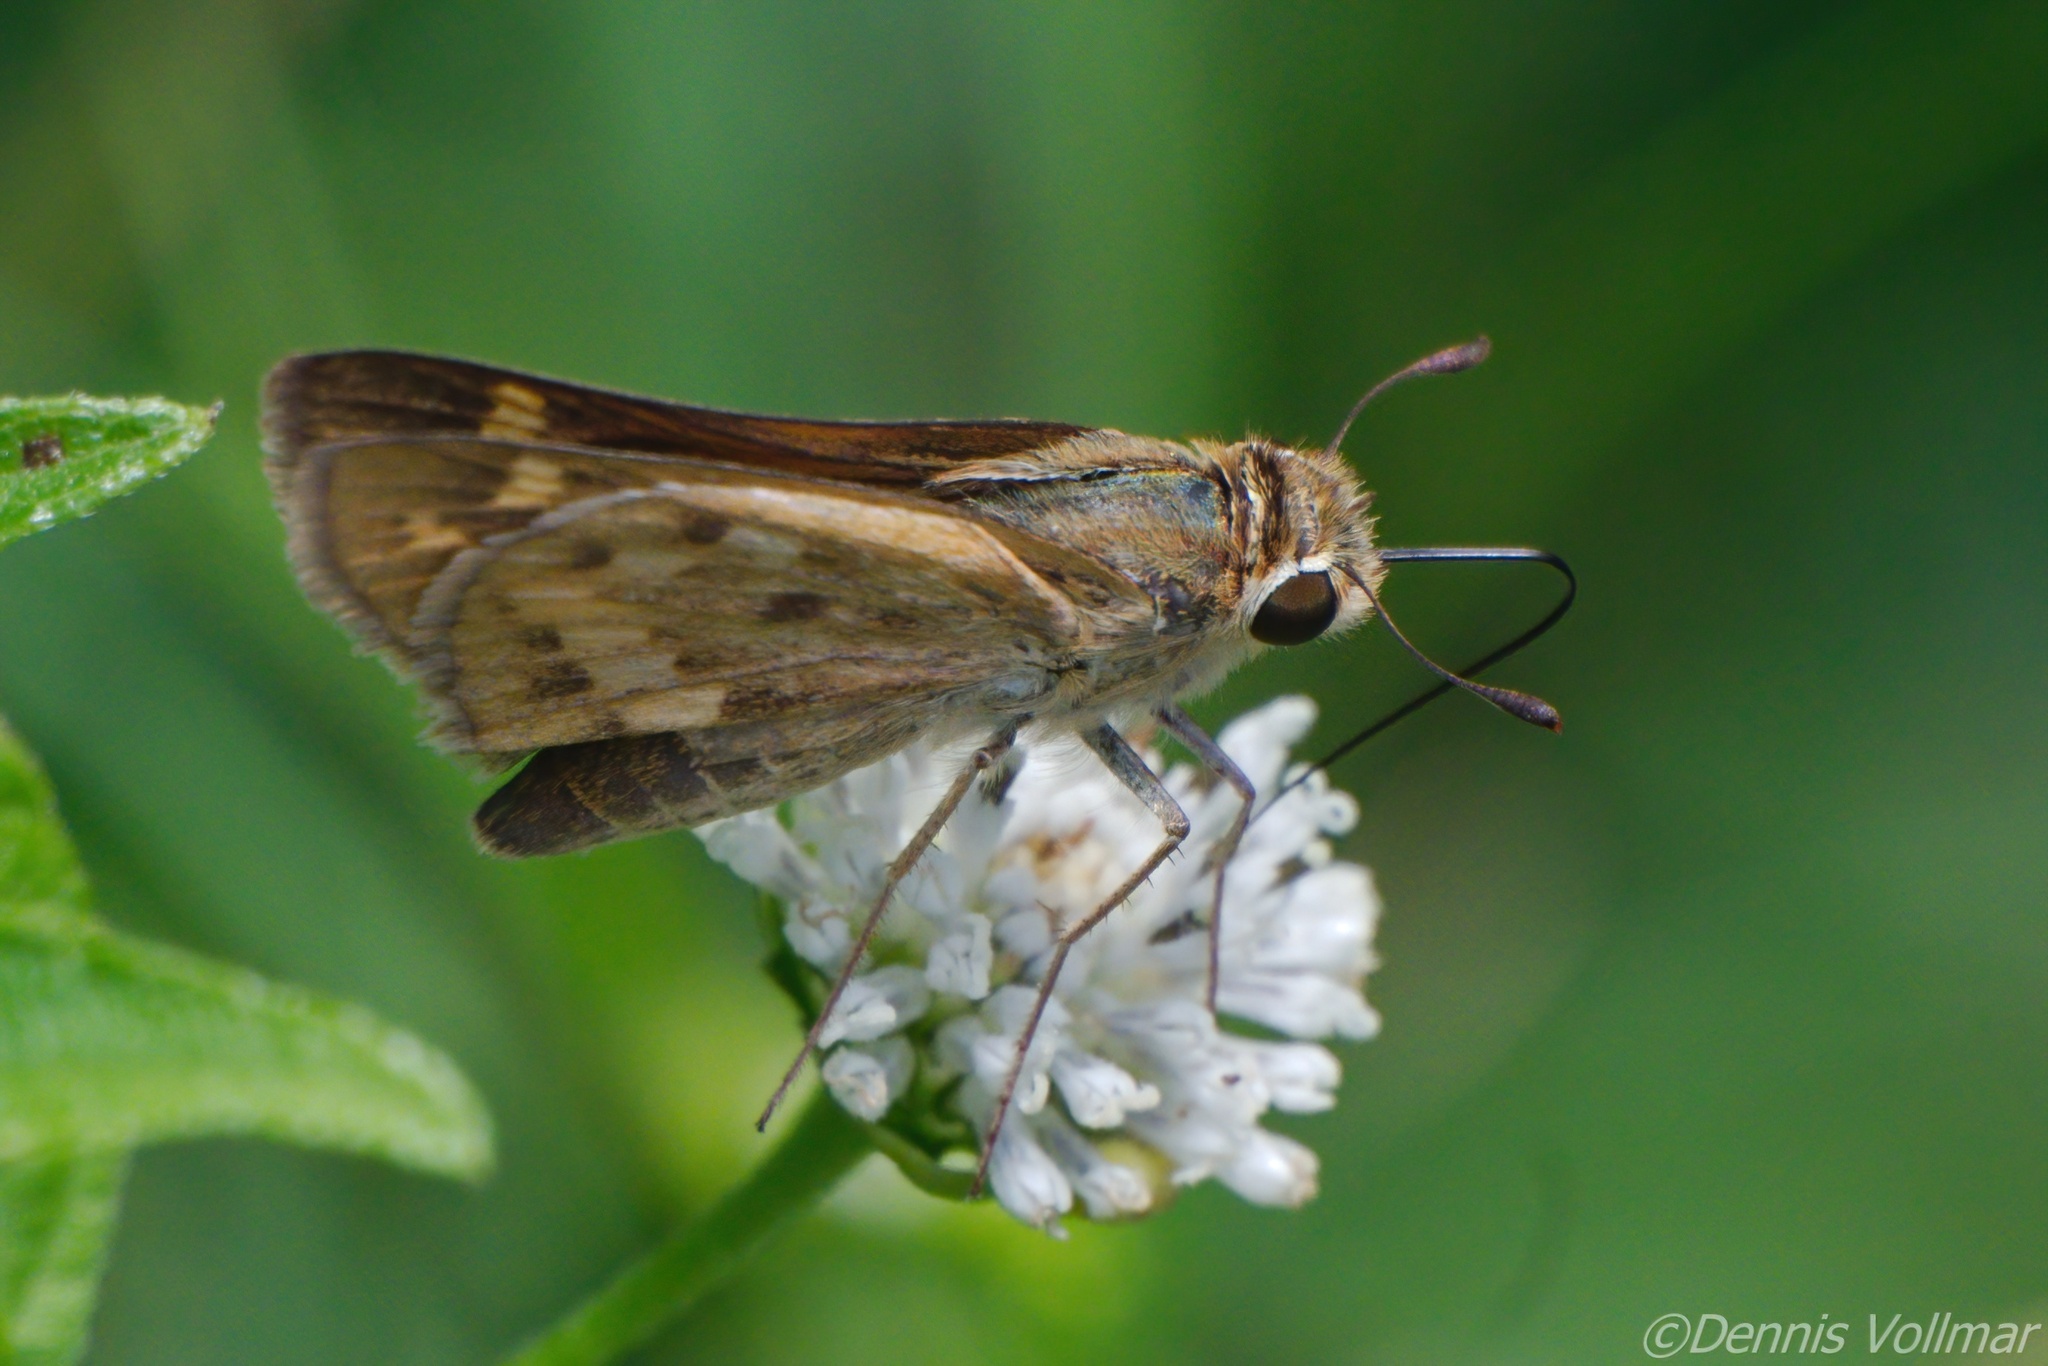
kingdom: Animalia
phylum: Arthropoda
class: Insecta
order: Lepidoptera
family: Hesperiidae
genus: Hylephila
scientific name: Hylephila phyleus
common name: Fiery skipper
